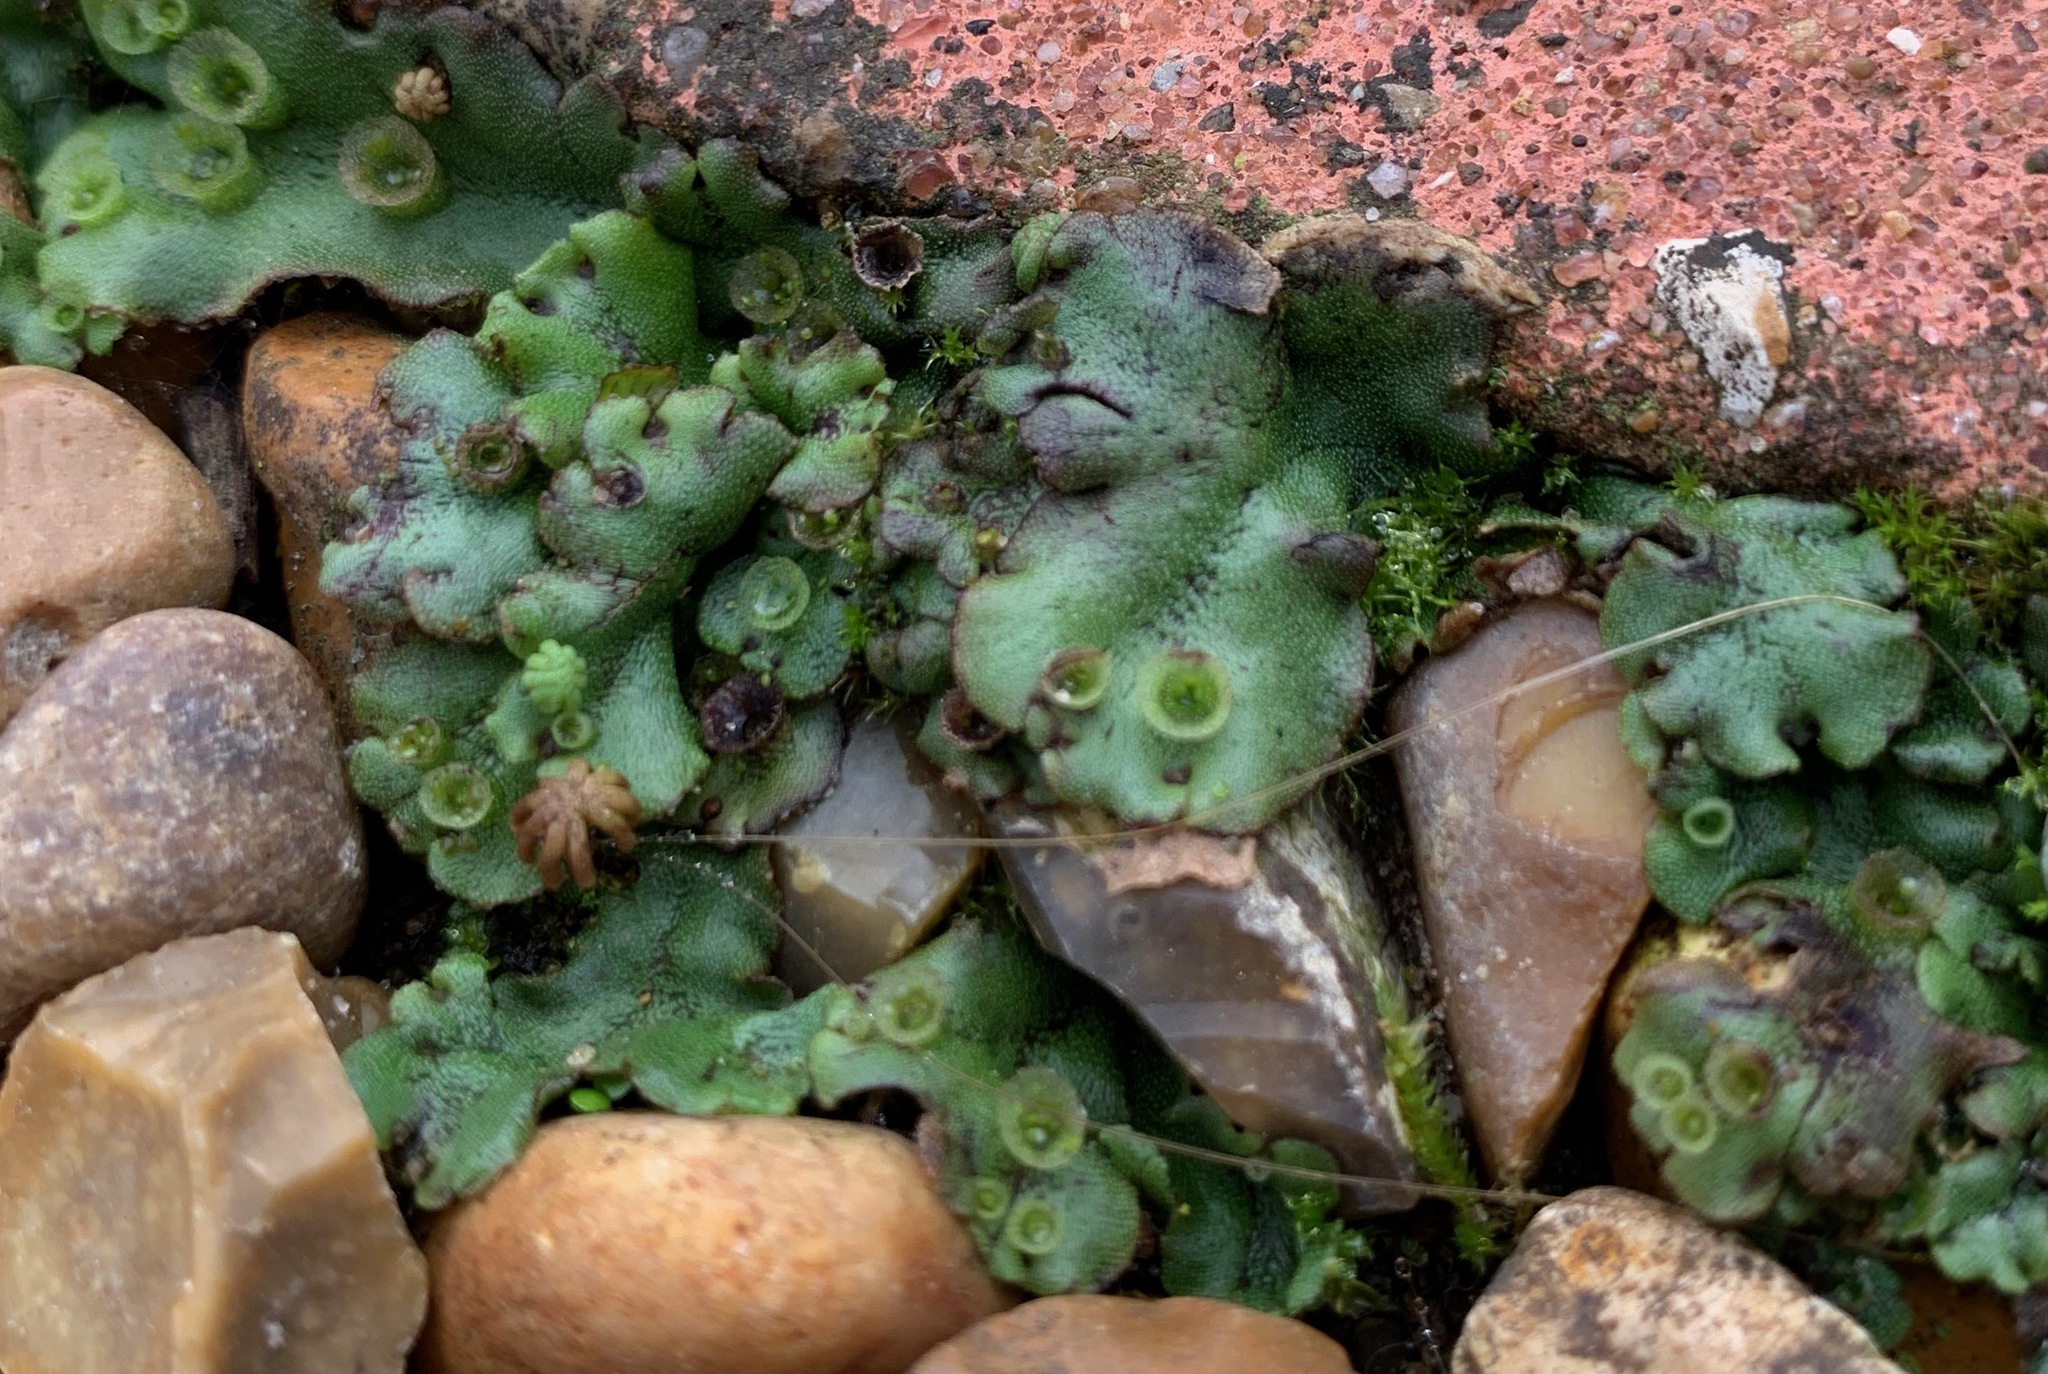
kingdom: Plantae
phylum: Marchantiophyta
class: Marchantiopsida
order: Marchantiales
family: Marchantiaceae
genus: Marchantia
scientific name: Marchantia polymorpha
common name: Common liverwort
